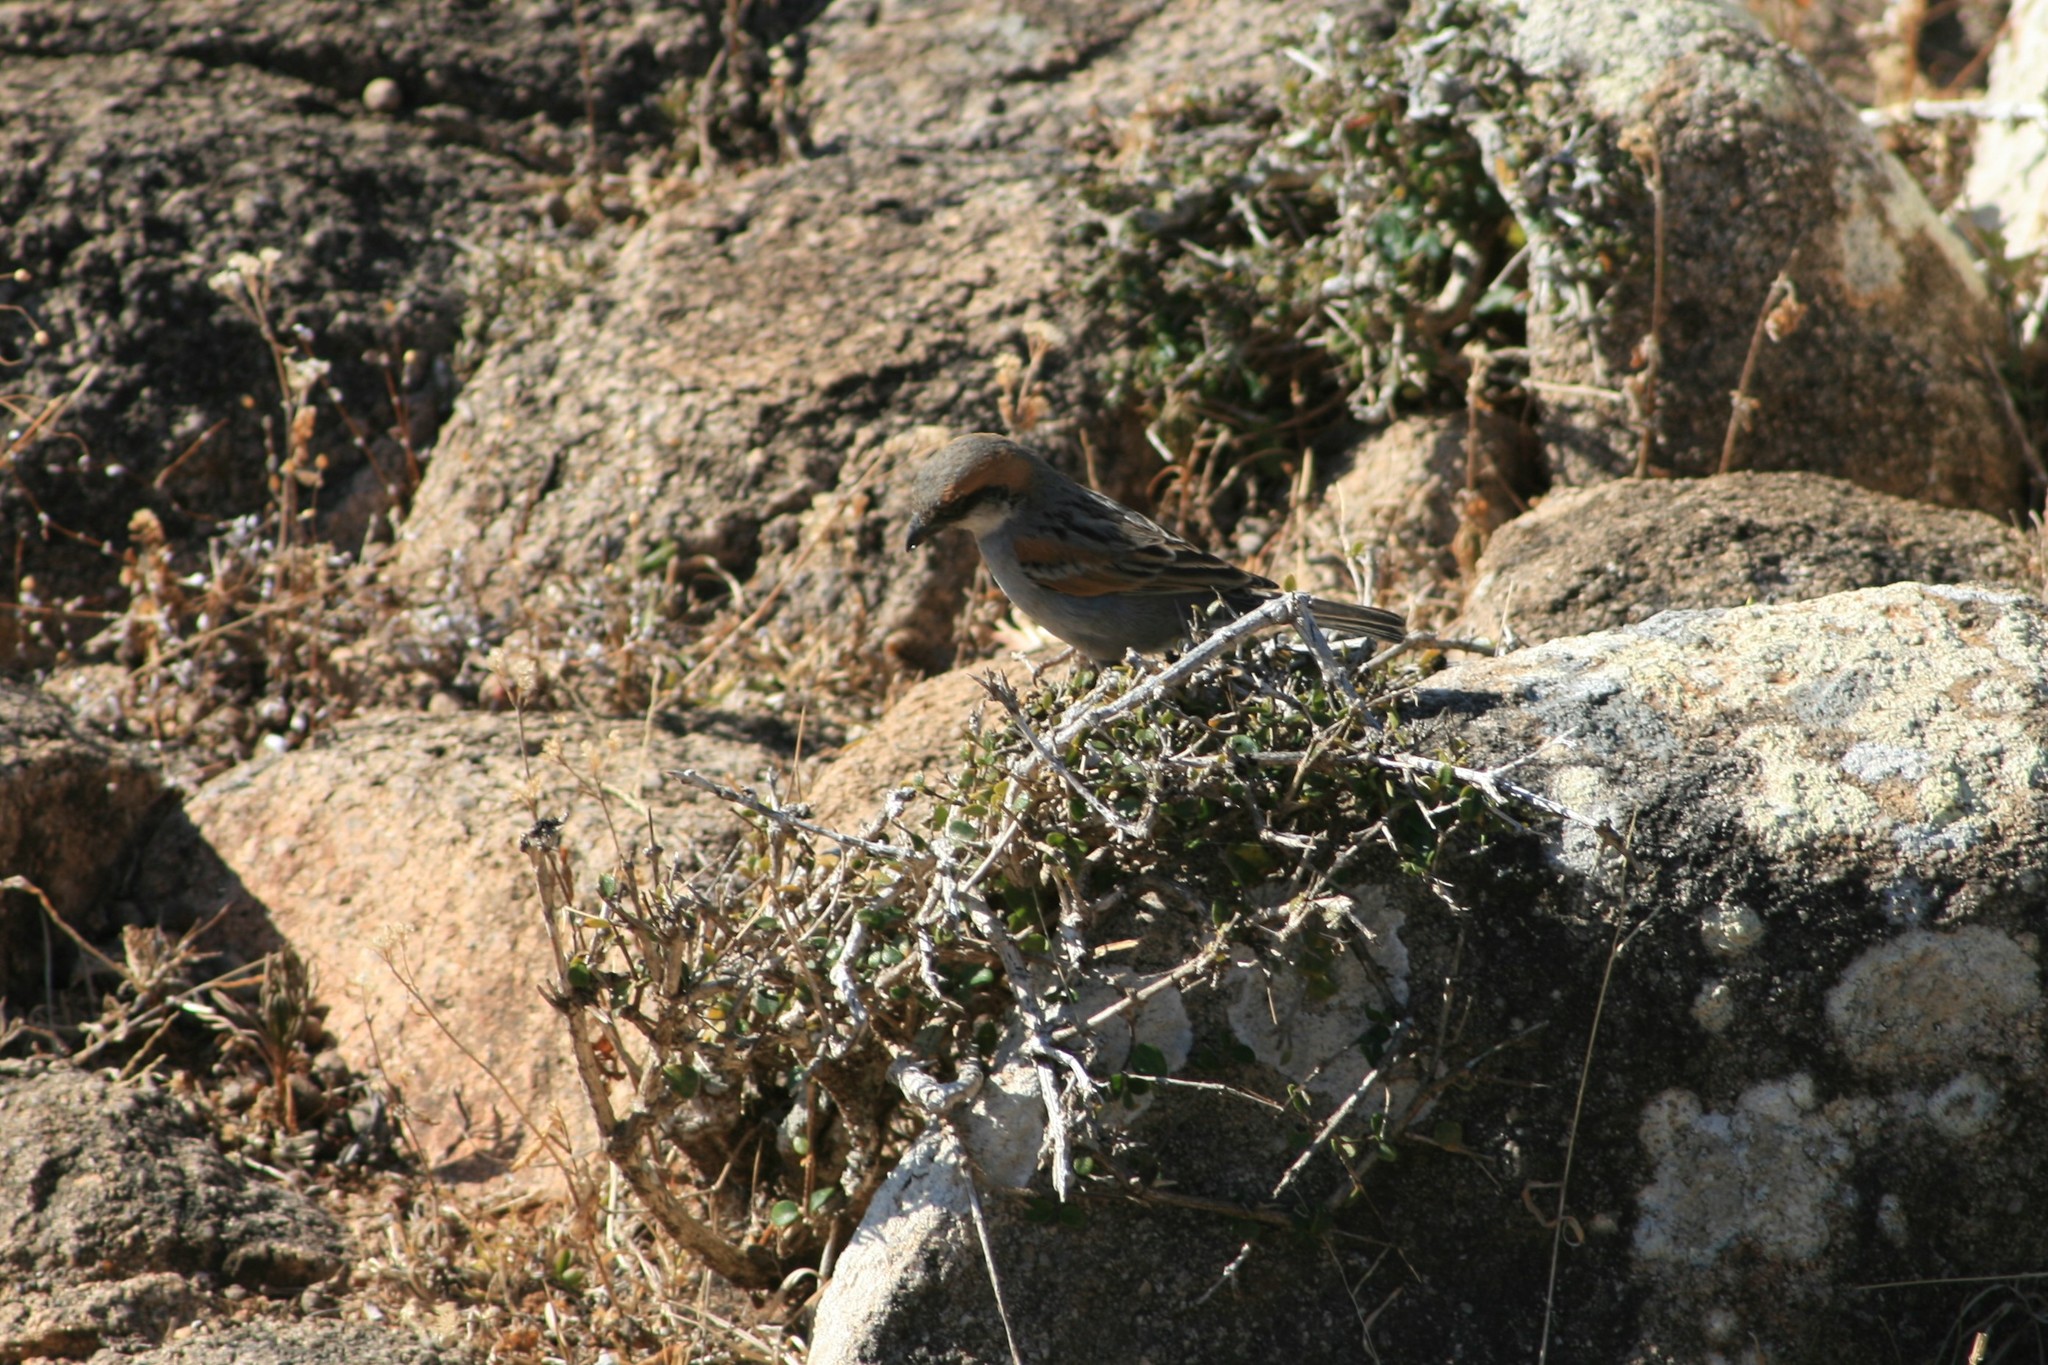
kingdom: Animalia
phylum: Chordata
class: Aves
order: Passeriformes
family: Passeridae
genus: Passer
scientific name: Passer insularis
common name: Socotra sparrow
